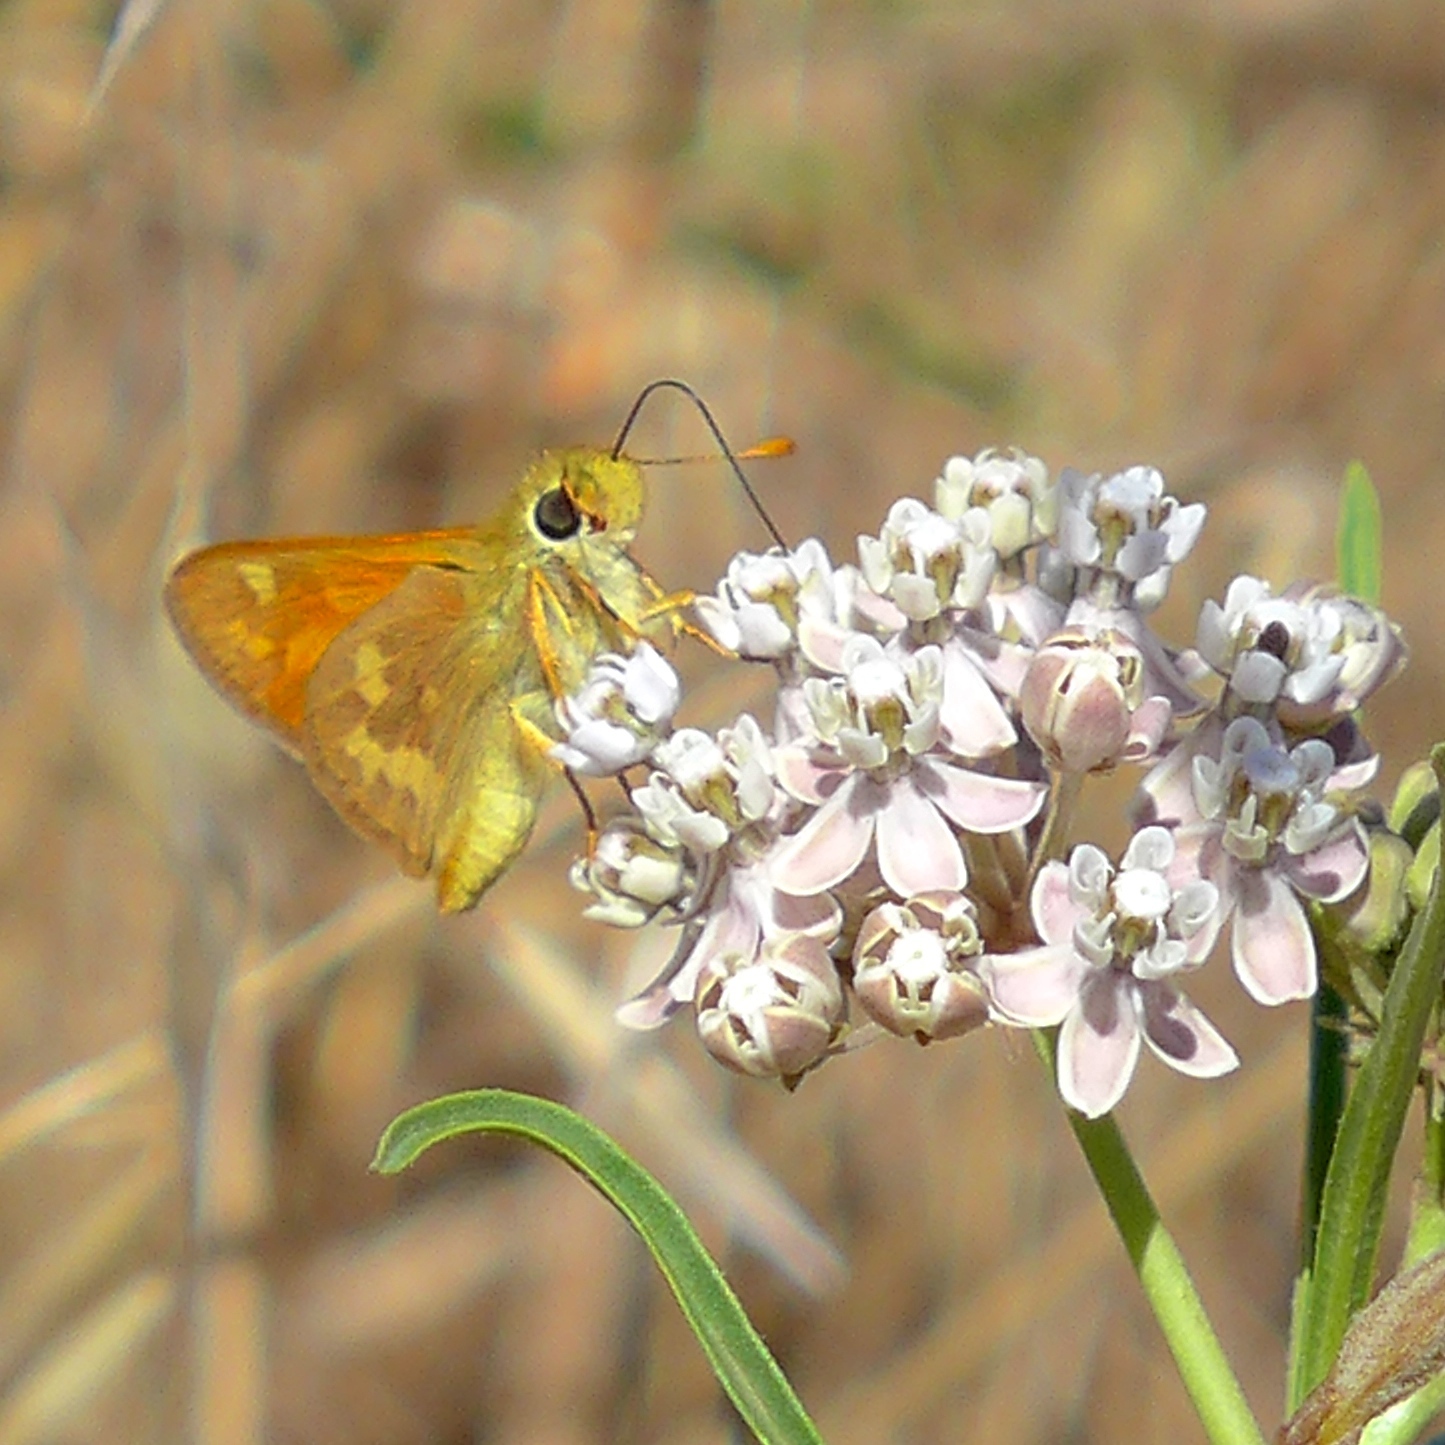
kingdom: Animalia
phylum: Arthropoda
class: Insecta
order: Lepidoptera
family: Hesperiidae
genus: Ochlodes
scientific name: Ochlodes sylvanoides
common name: Woodland skipper
